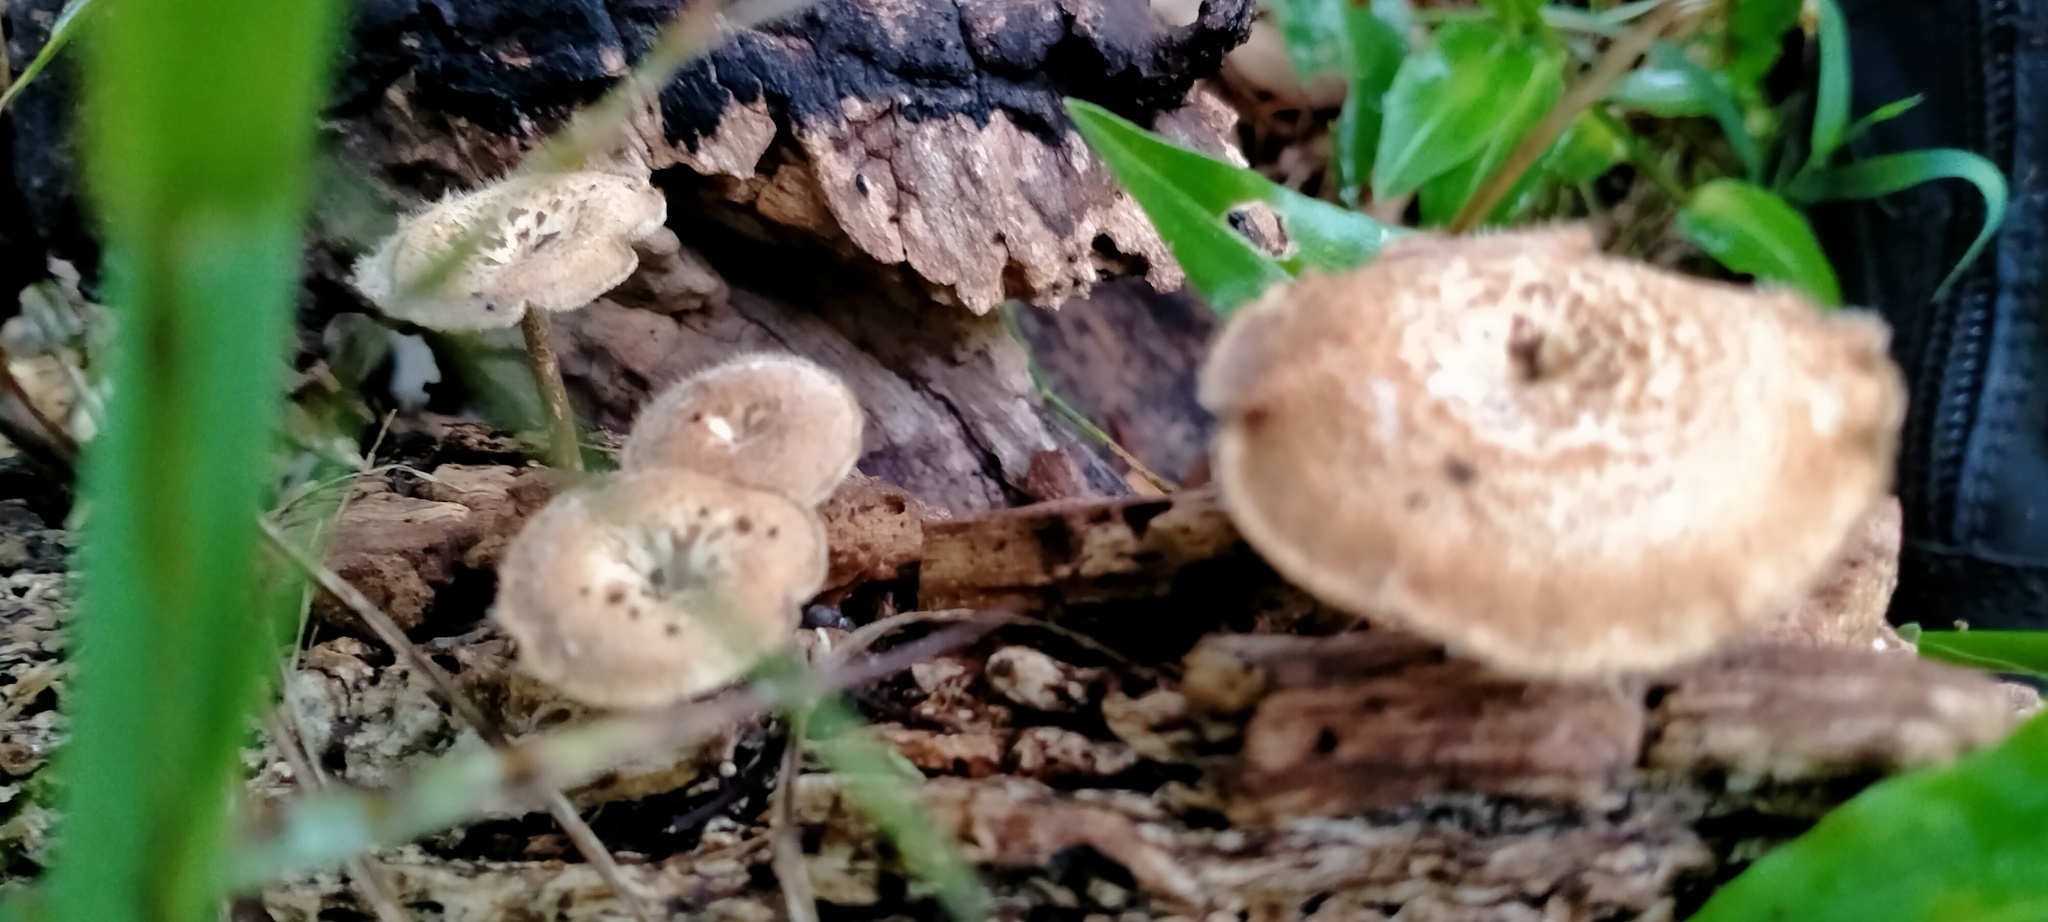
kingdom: Fungi
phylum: Basidiomycota
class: Agaricomycetes
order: Polyporales
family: Polyporaceae
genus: Lentinus
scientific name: Lentinus arcularius
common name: Spring polypore
